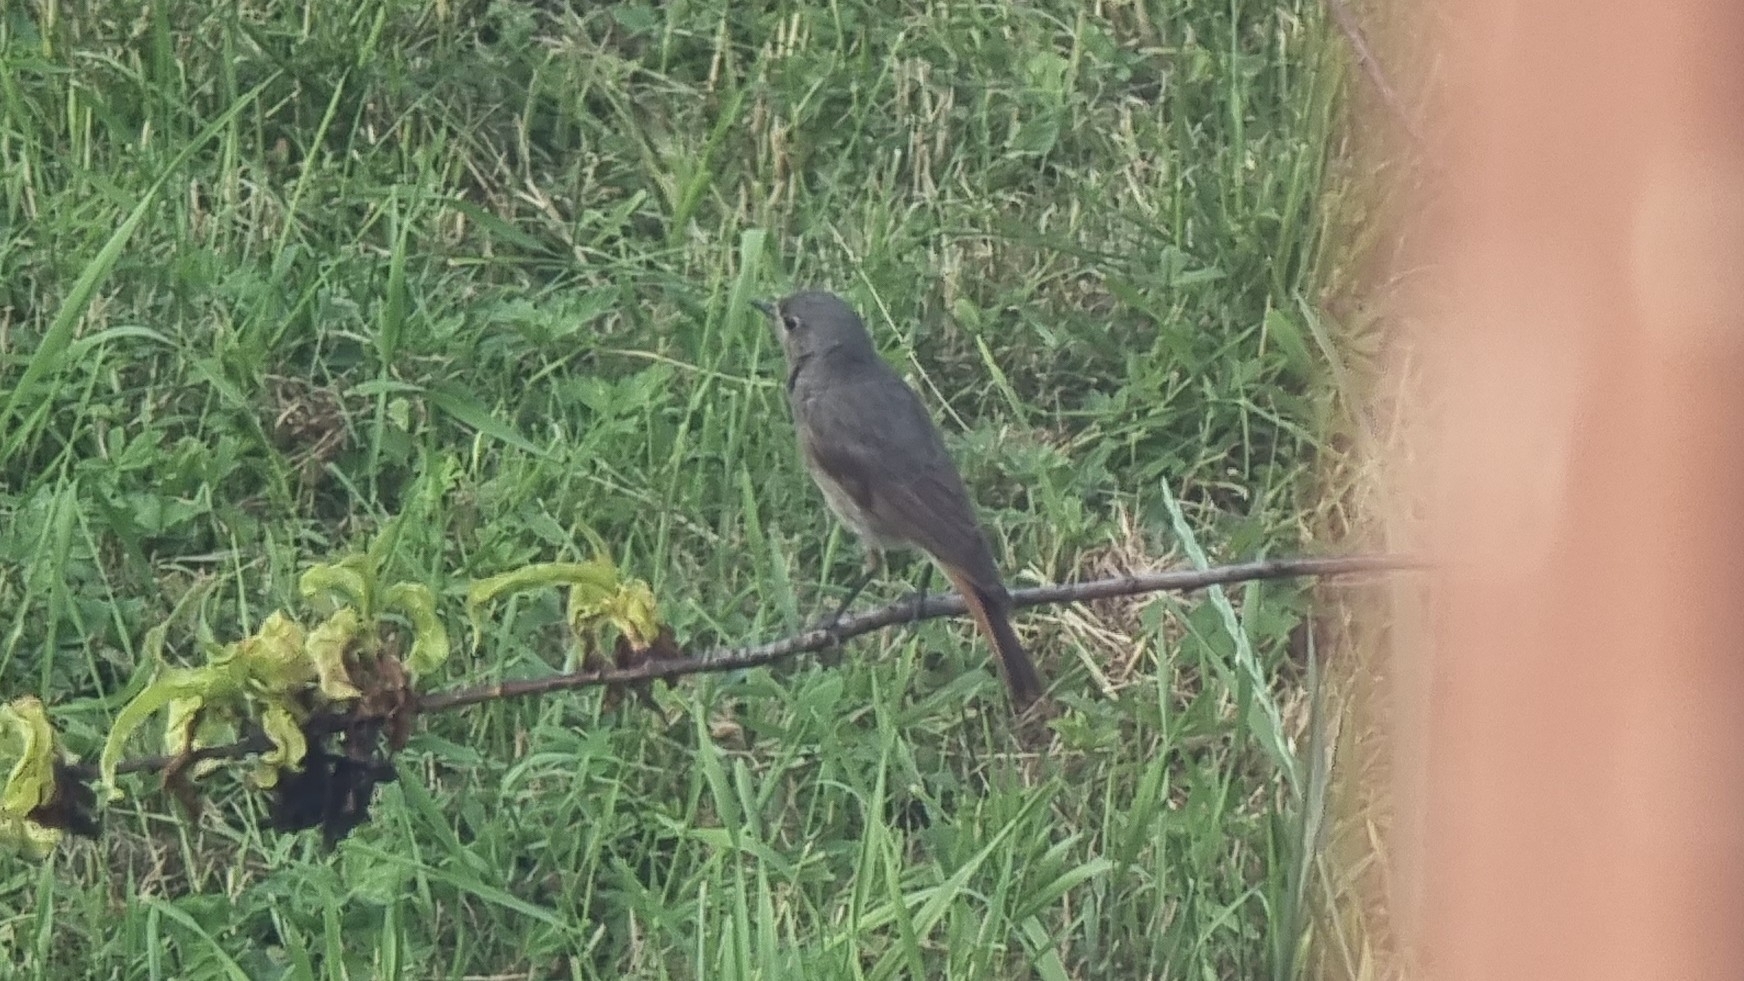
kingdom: Animalia
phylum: Chordata
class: Aves
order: Passeriformes
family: Muscicapidae
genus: Phoenicurus
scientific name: Phoenicurus ochruros
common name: Black redstart
